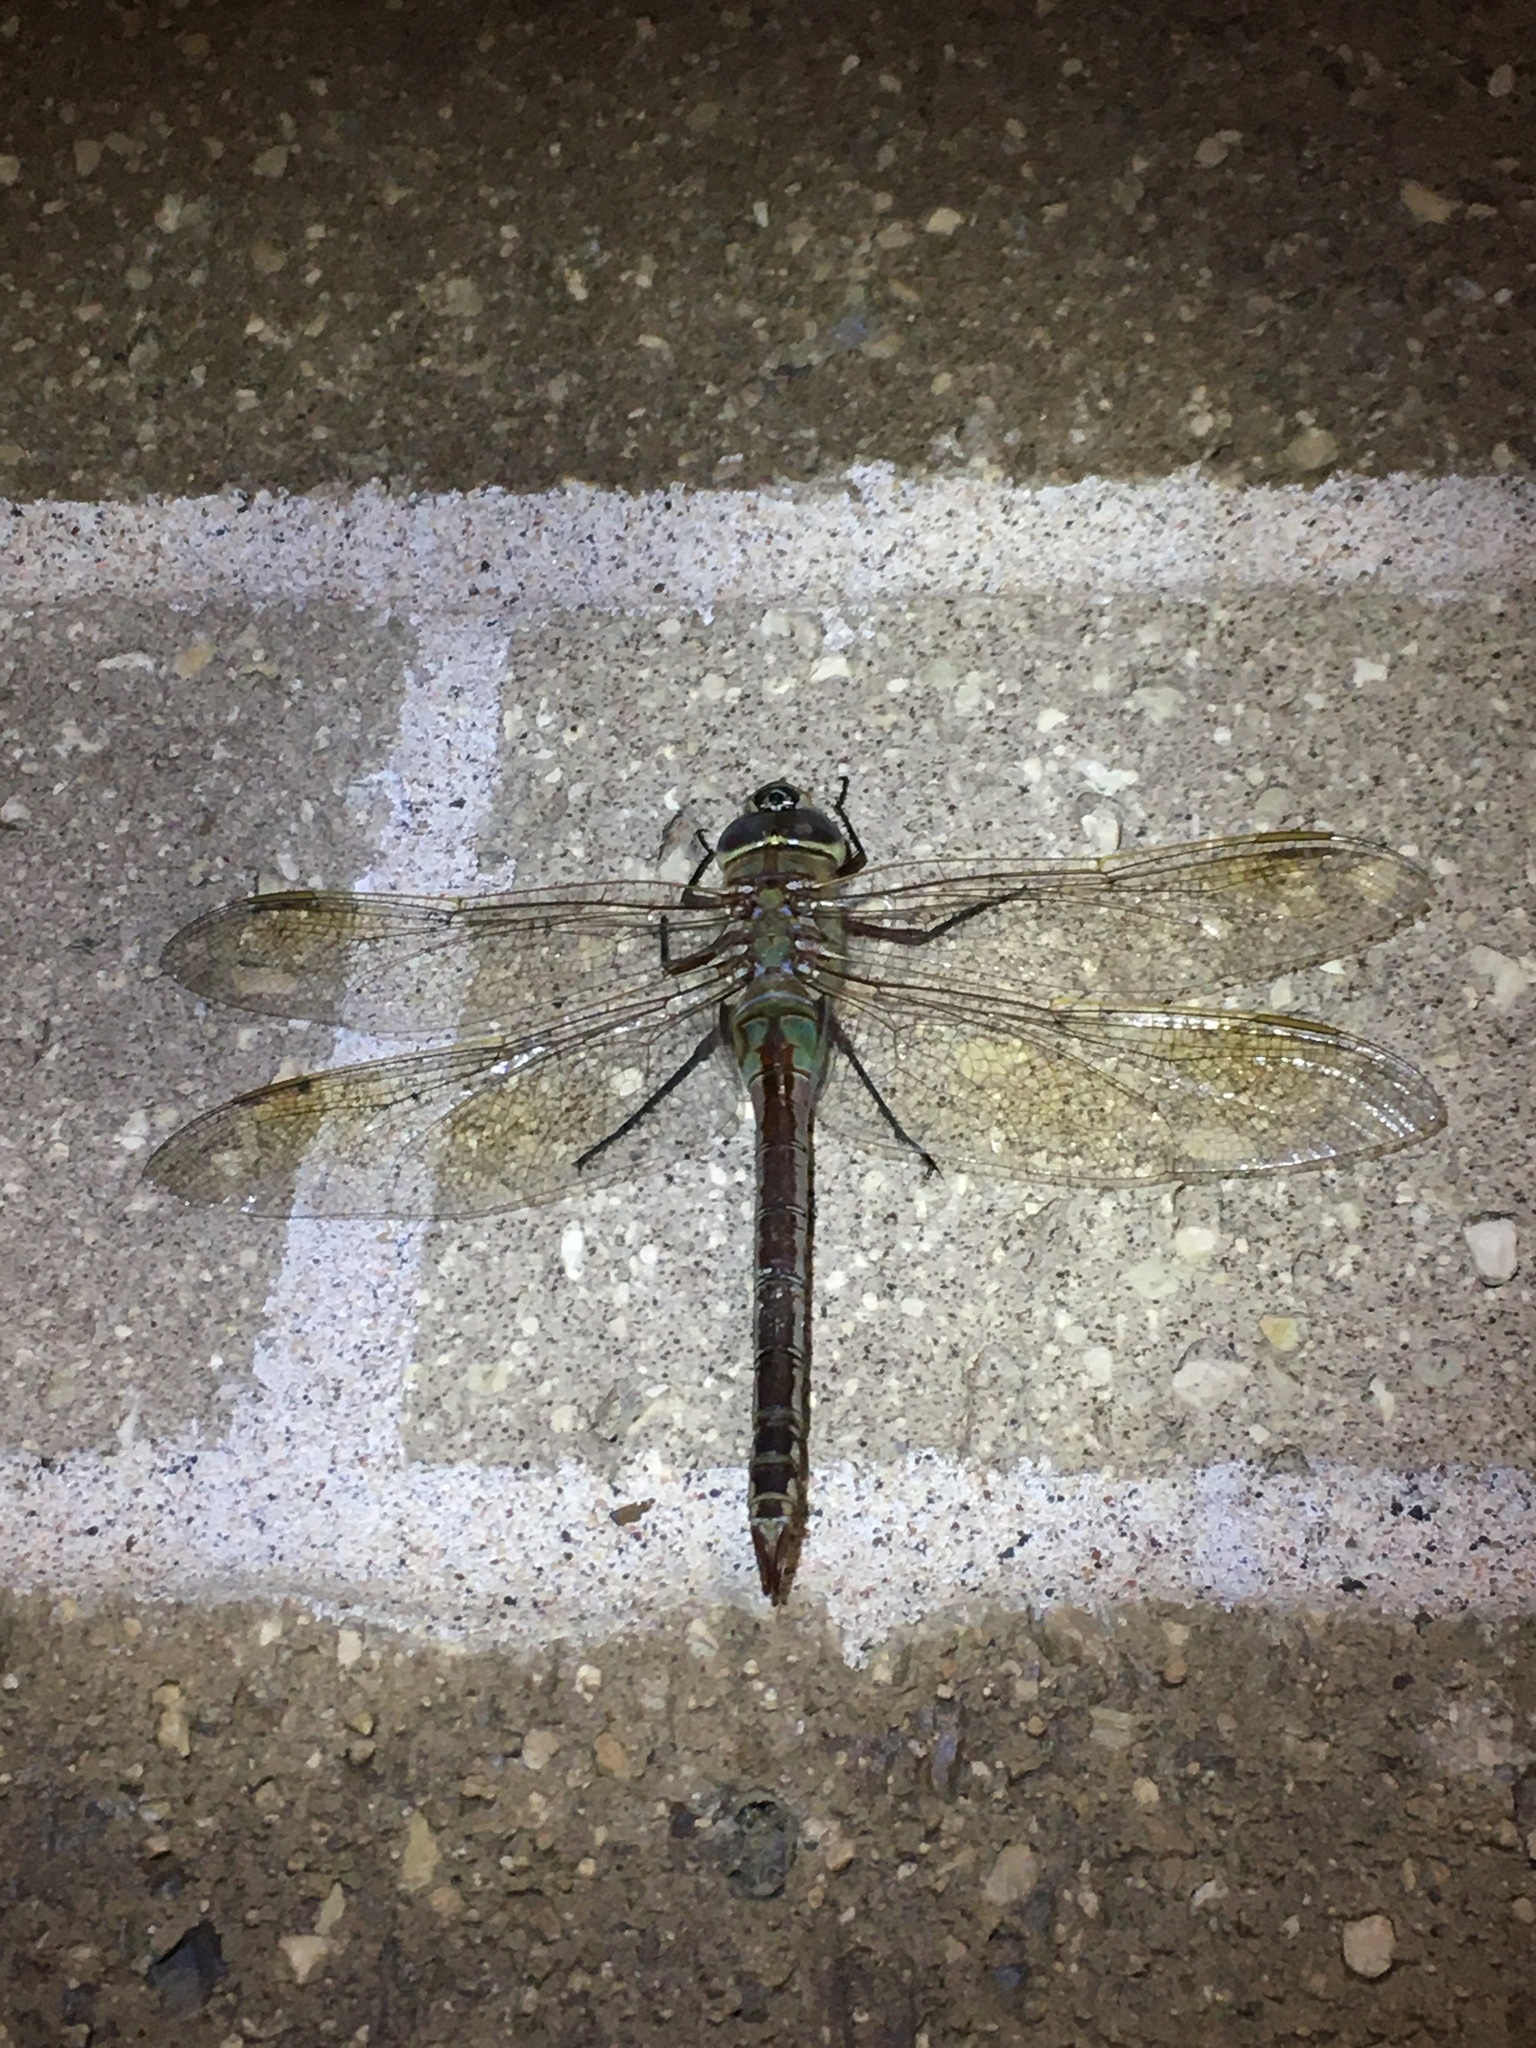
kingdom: Animalia
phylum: Arthropoda
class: Insecta
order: Odonata
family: Aeshnidae
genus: Anax
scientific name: Anax junius
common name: Common green darner
